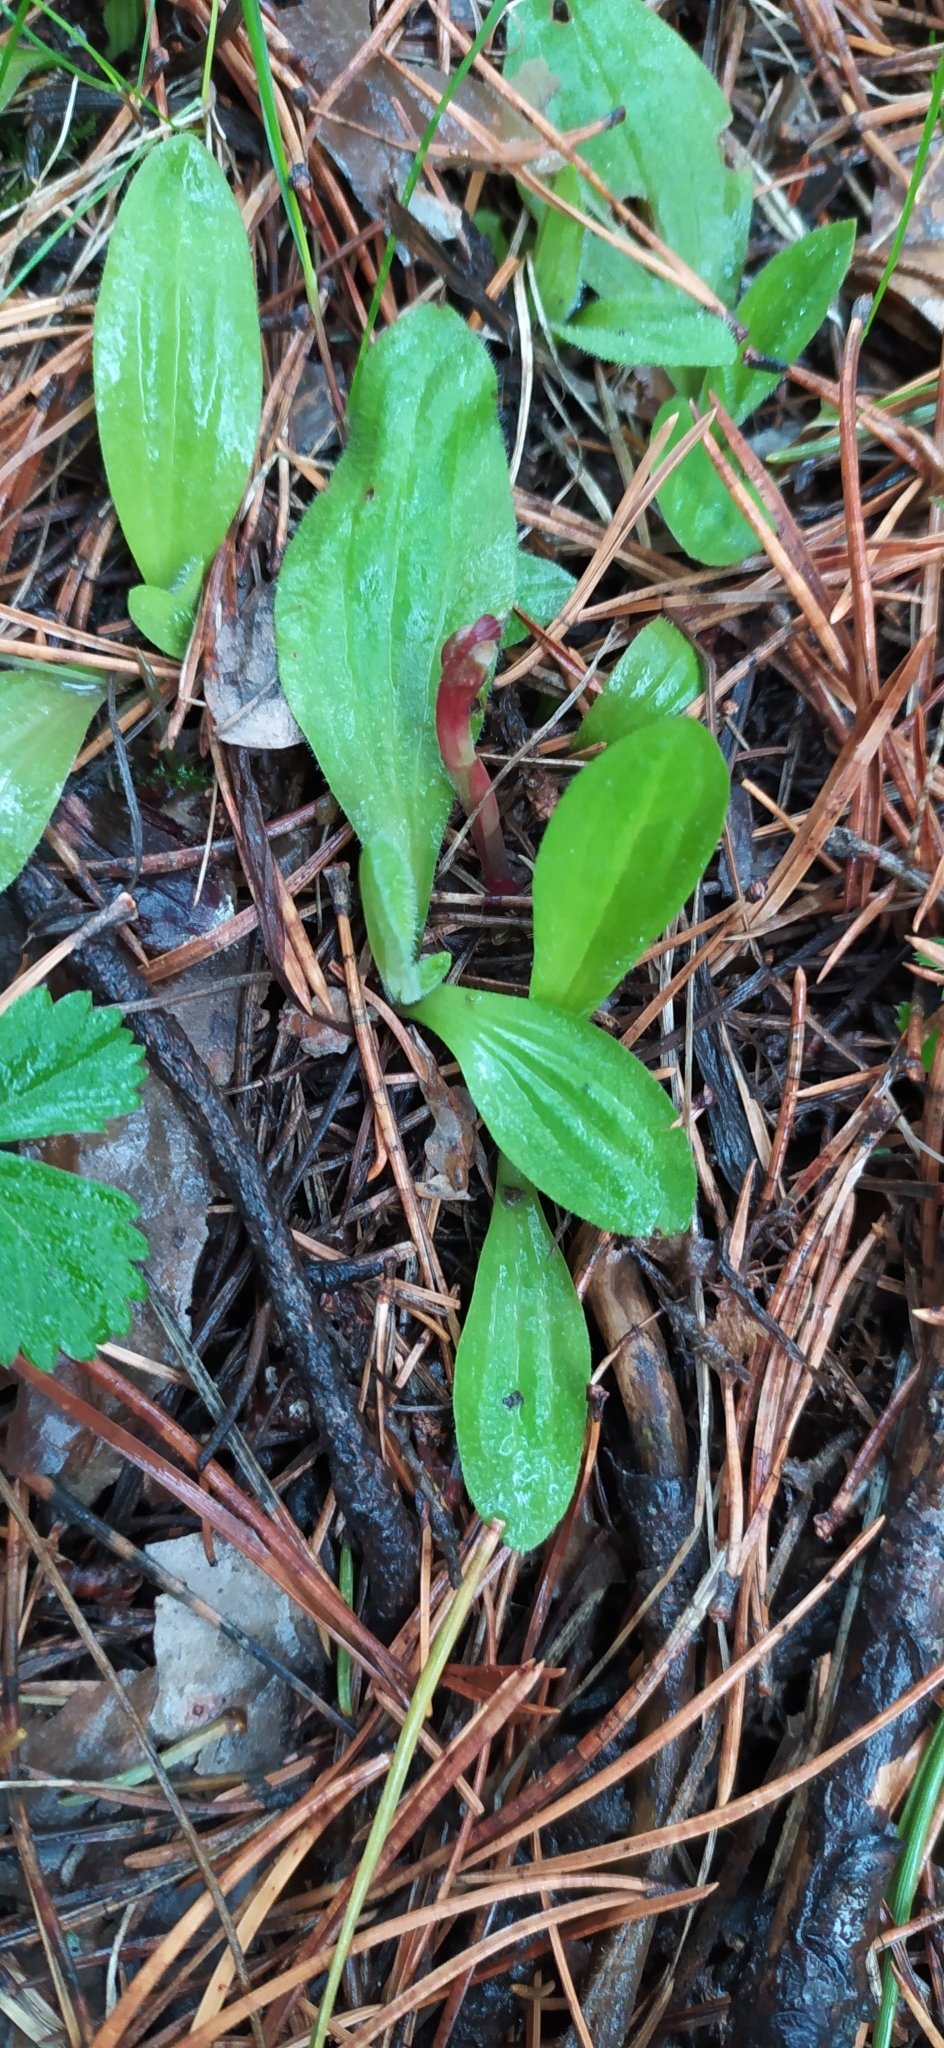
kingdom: Plantae
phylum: Tracheophyta
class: Magnoliopsida
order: Lamiales
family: Plantaginaceae
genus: Plantago
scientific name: Plantago media
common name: Hoary plantain
